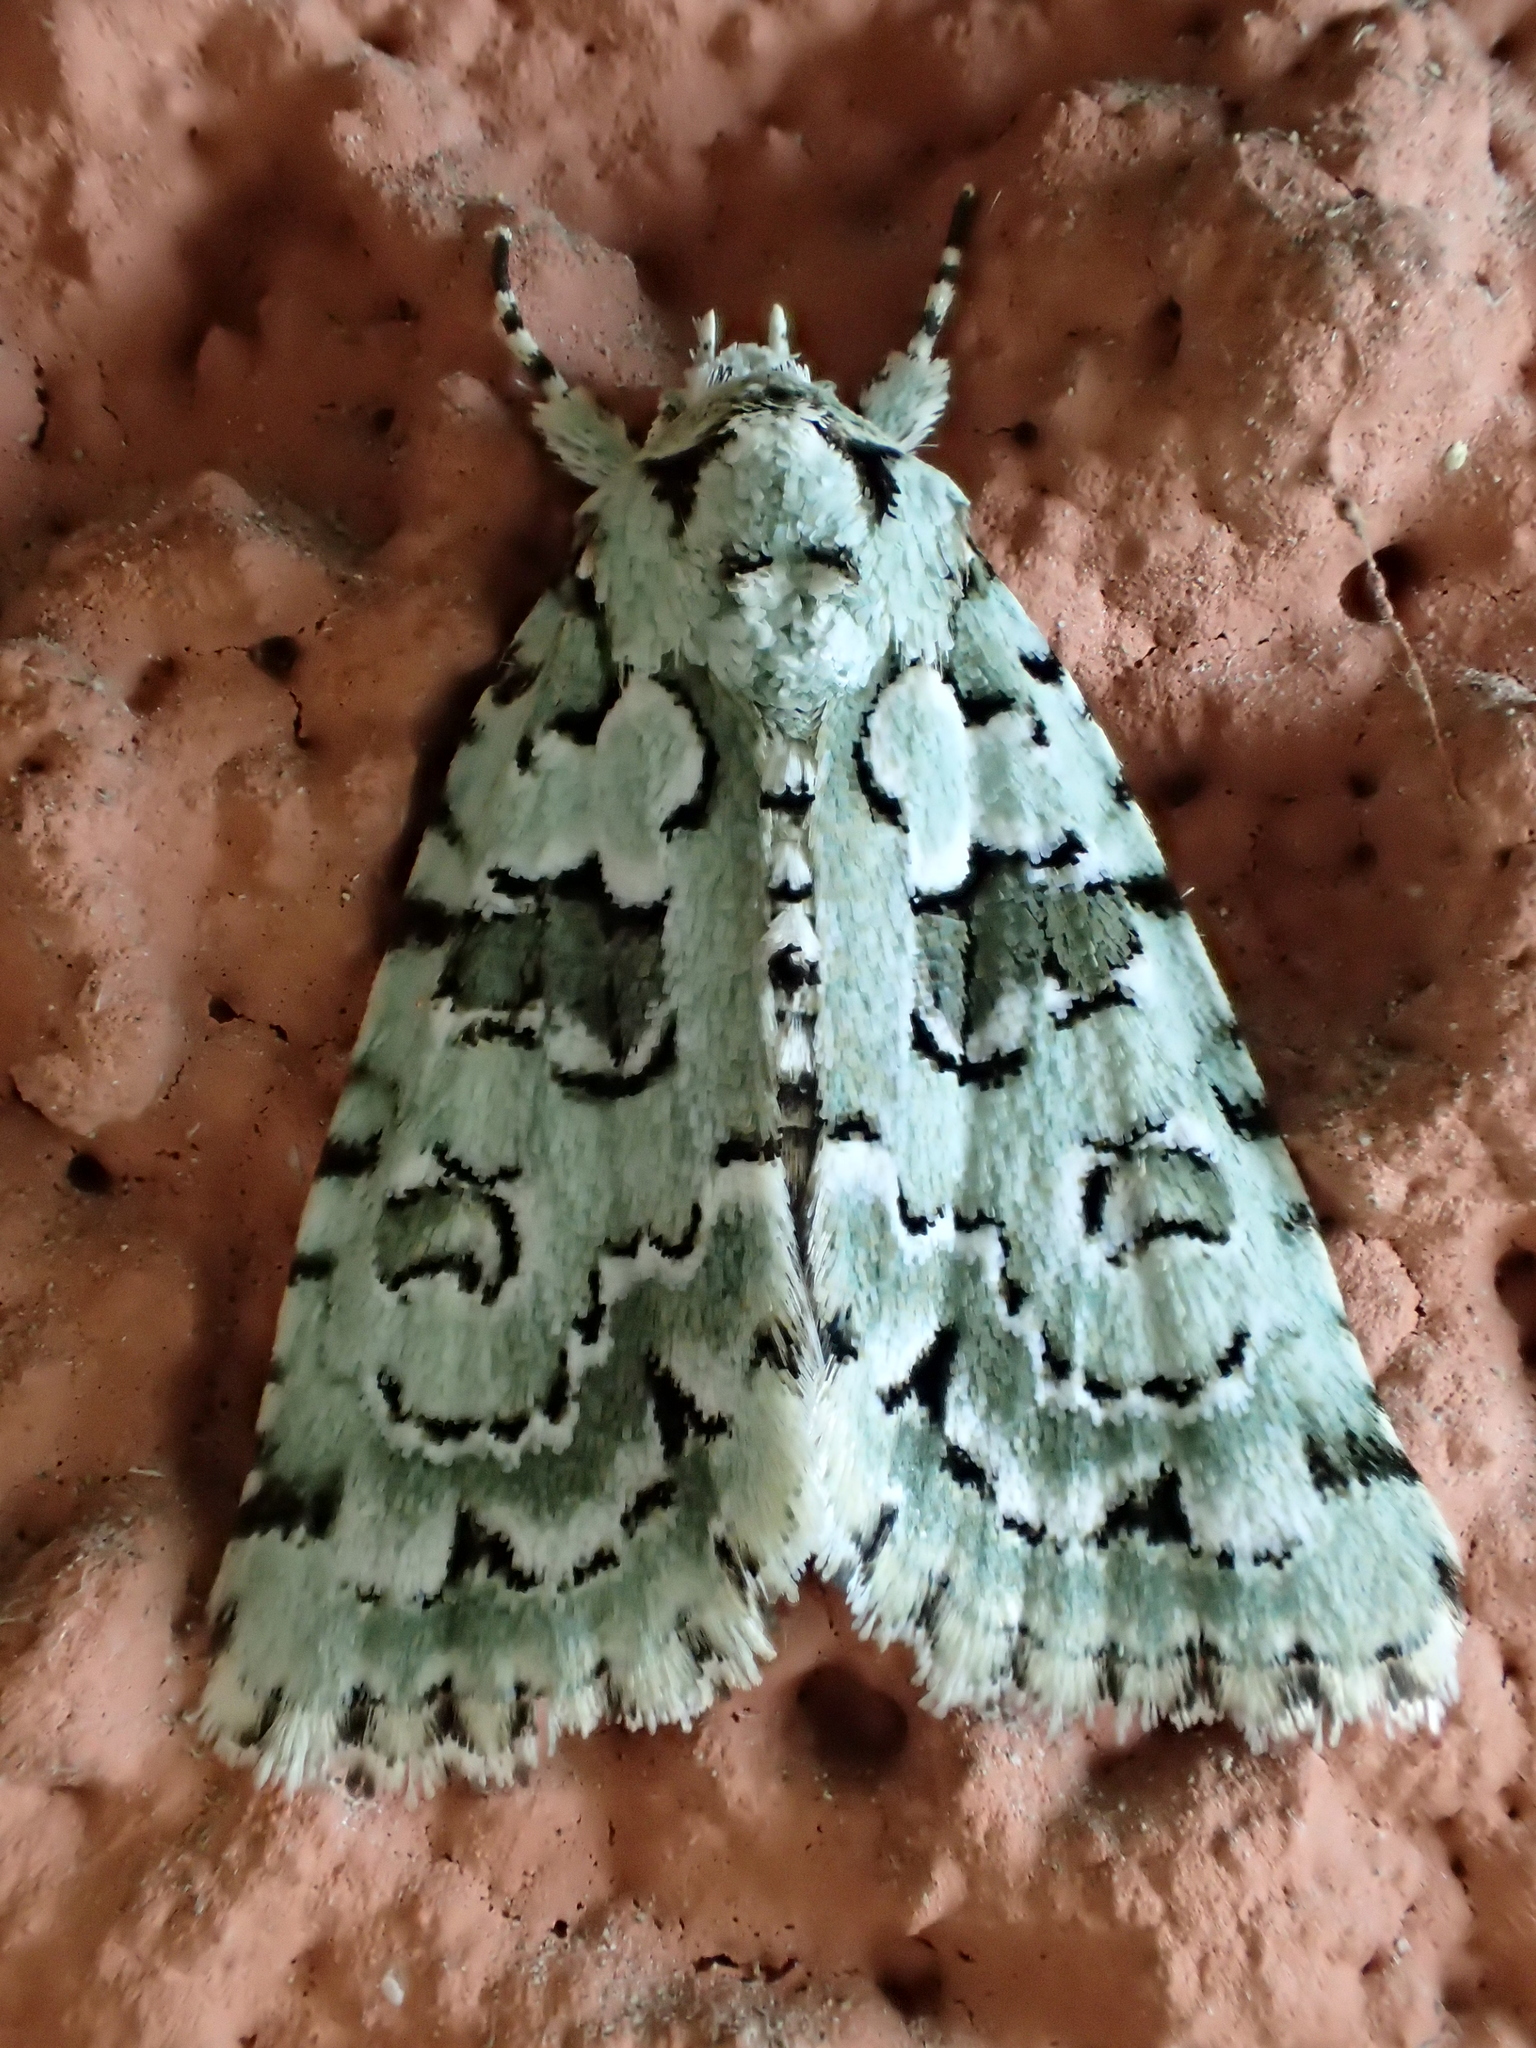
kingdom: Animalia
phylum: Arthropoda
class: Insecta
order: Lepidoptera
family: Noctuidae
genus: Nyctobrya
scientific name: Nyctobrya muralis
